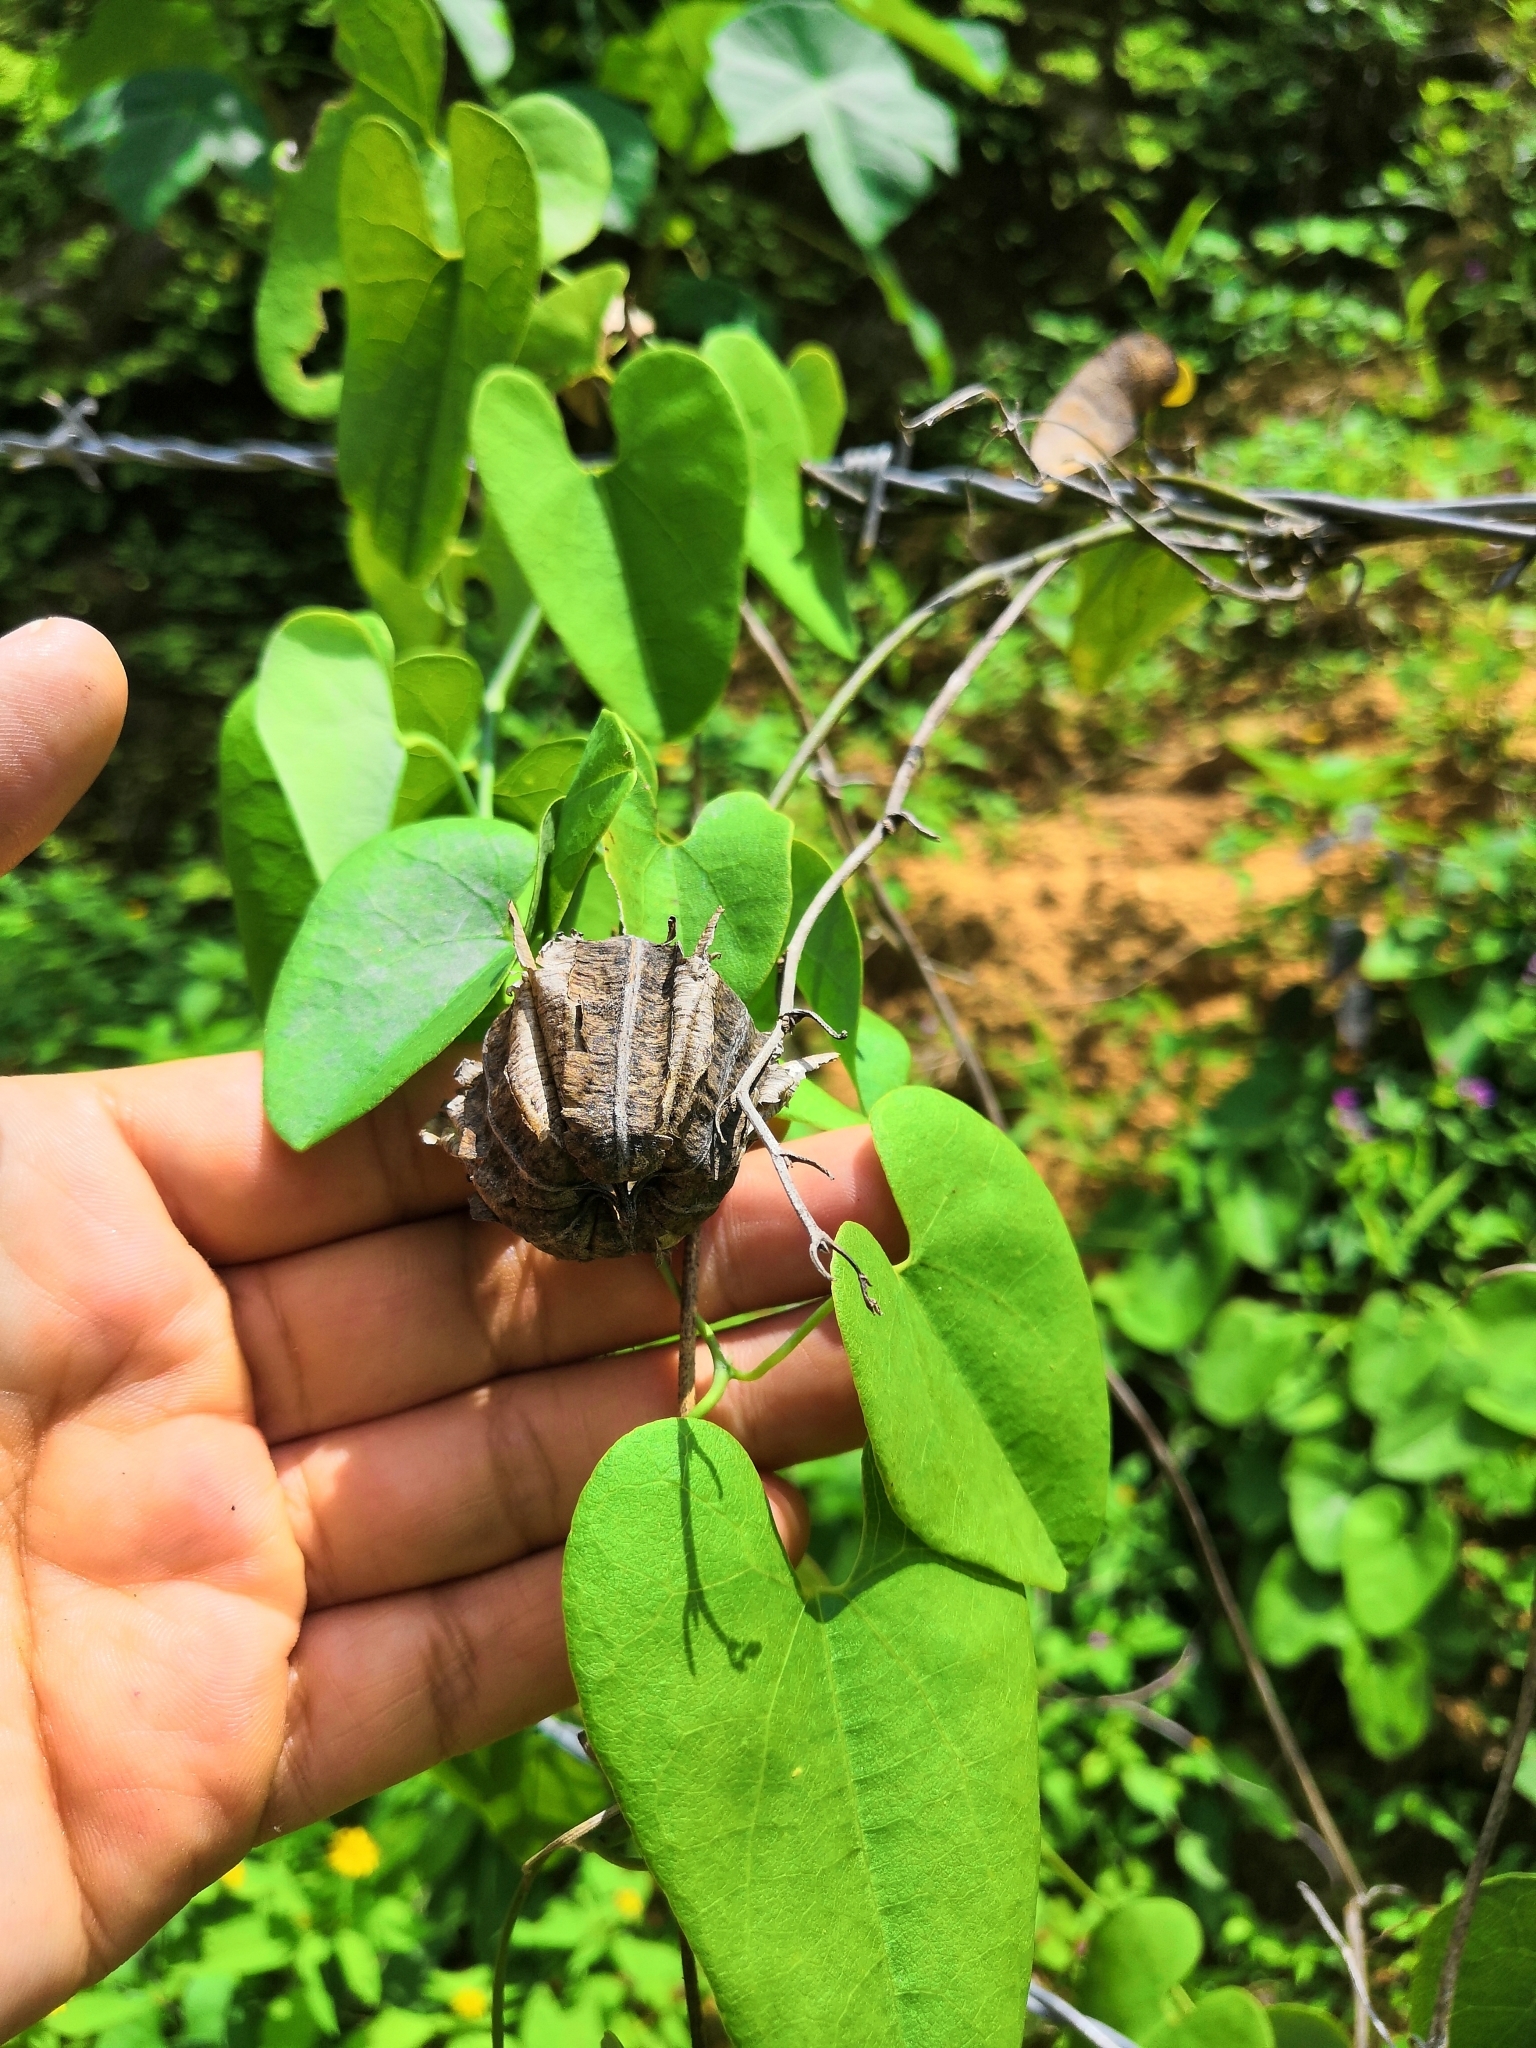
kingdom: Plantae
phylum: Tracheophyta
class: Magnoliopsida
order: Piperales
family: Aristolochiaceae
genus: Aristolochia
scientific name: Aristolochia carterae
